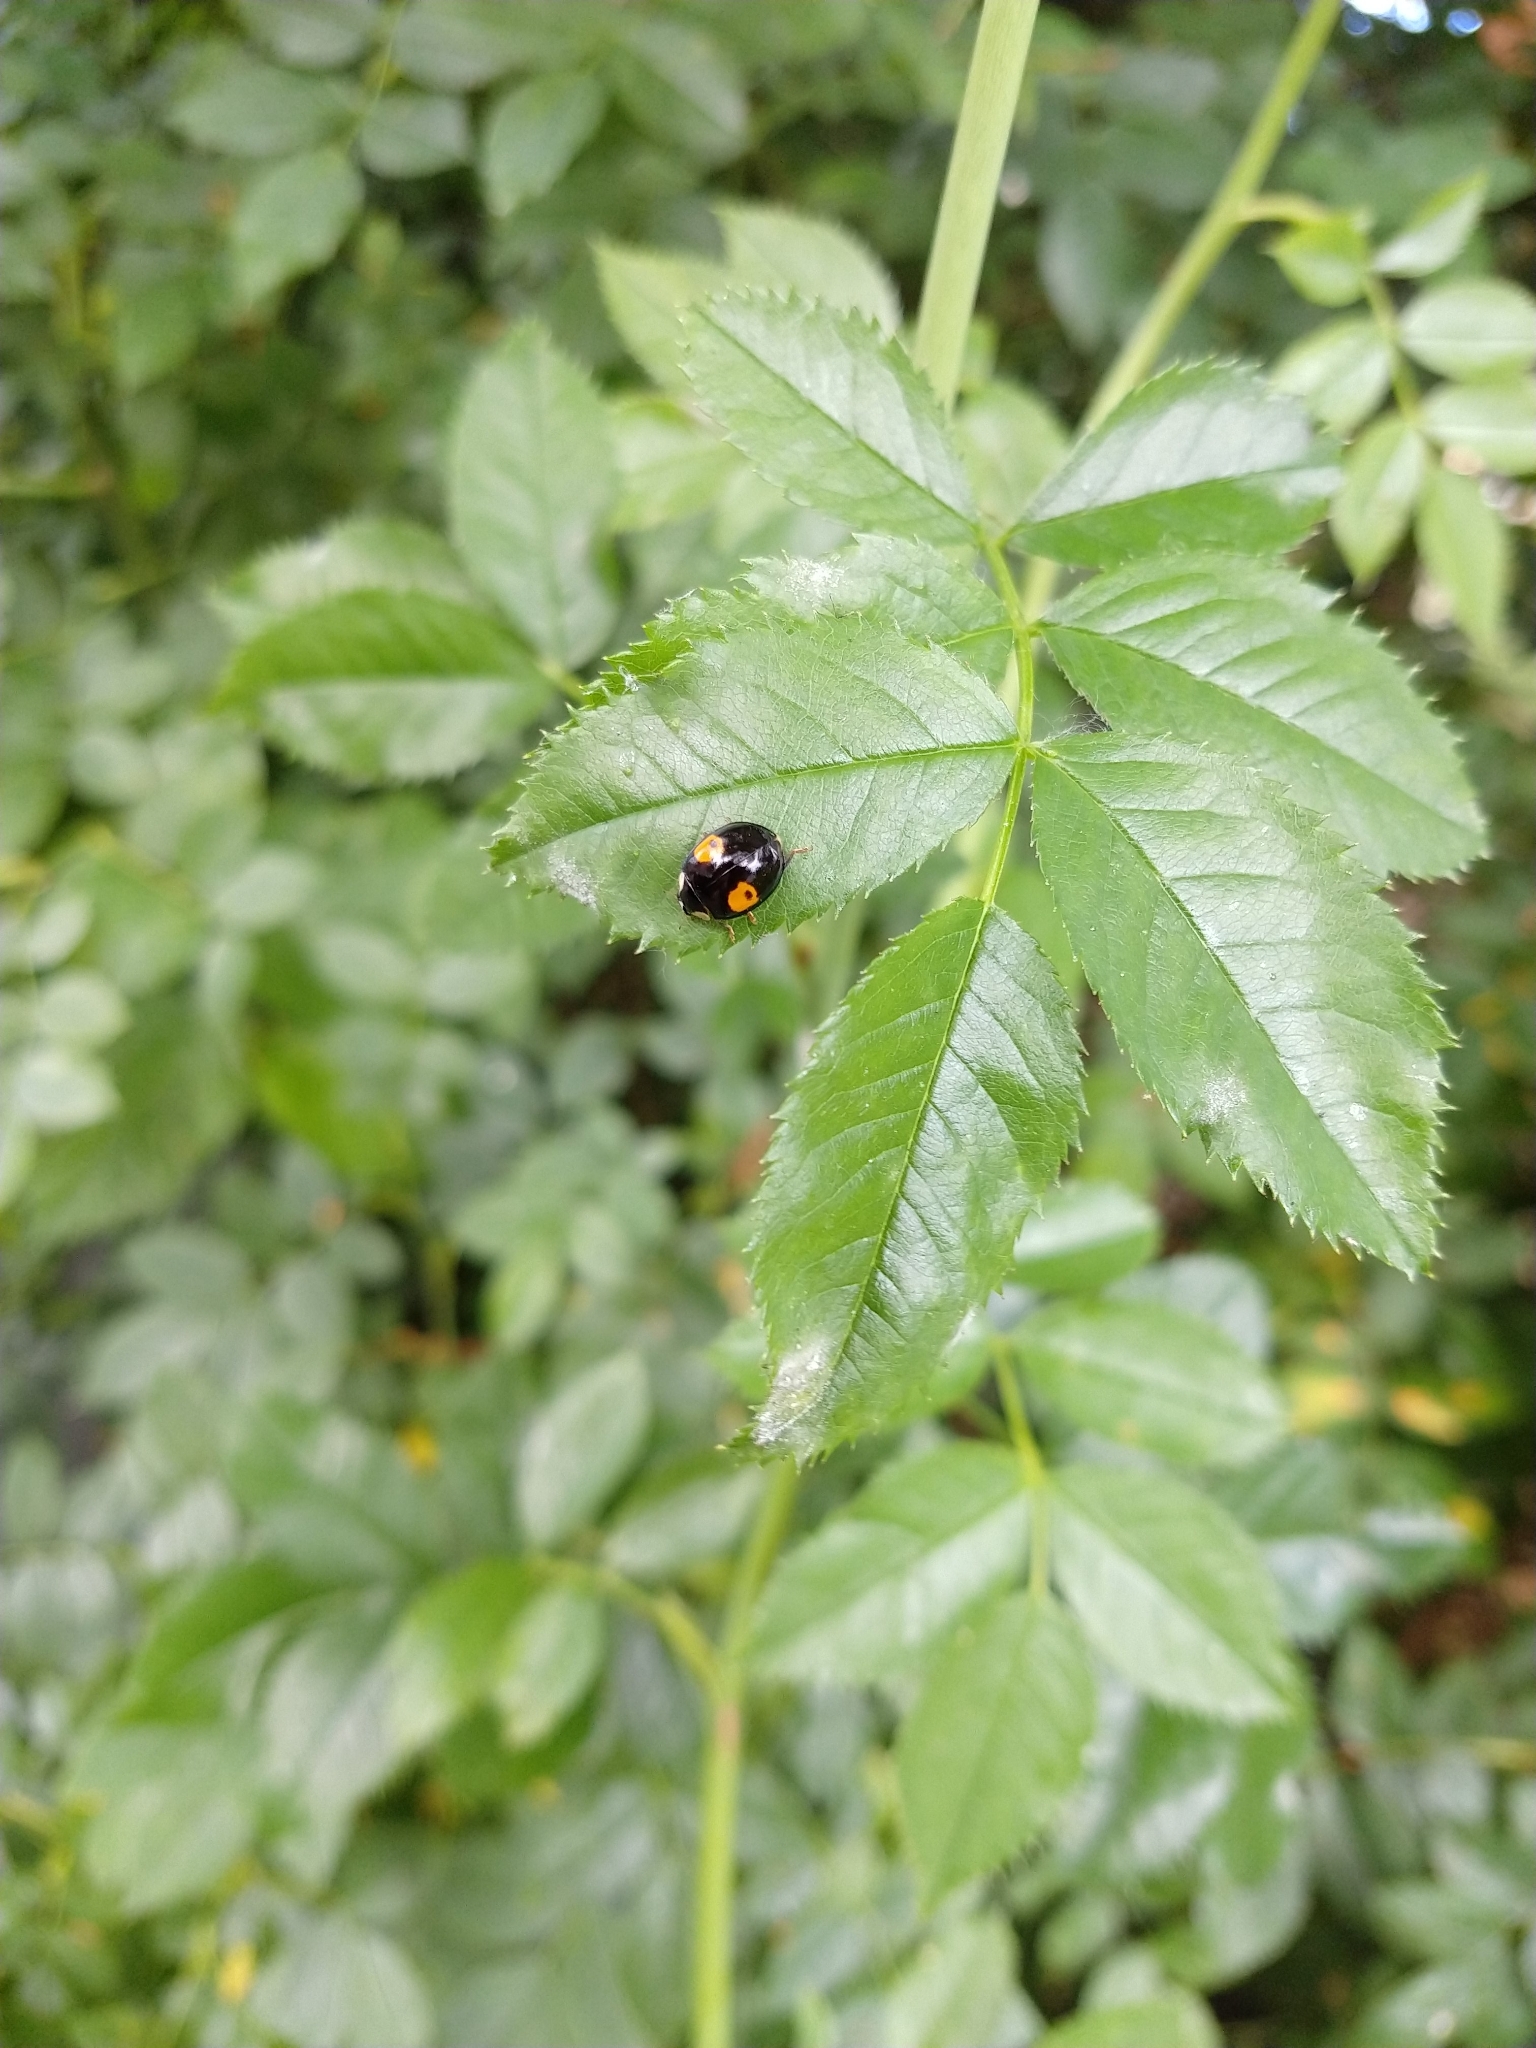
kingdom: Animalia
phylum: Arthropoda
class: Insecta
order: Coleoptera
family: Coccinellidae
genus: Harmonia
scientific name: Harmonia axyridis
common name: Harlequin ladybird
